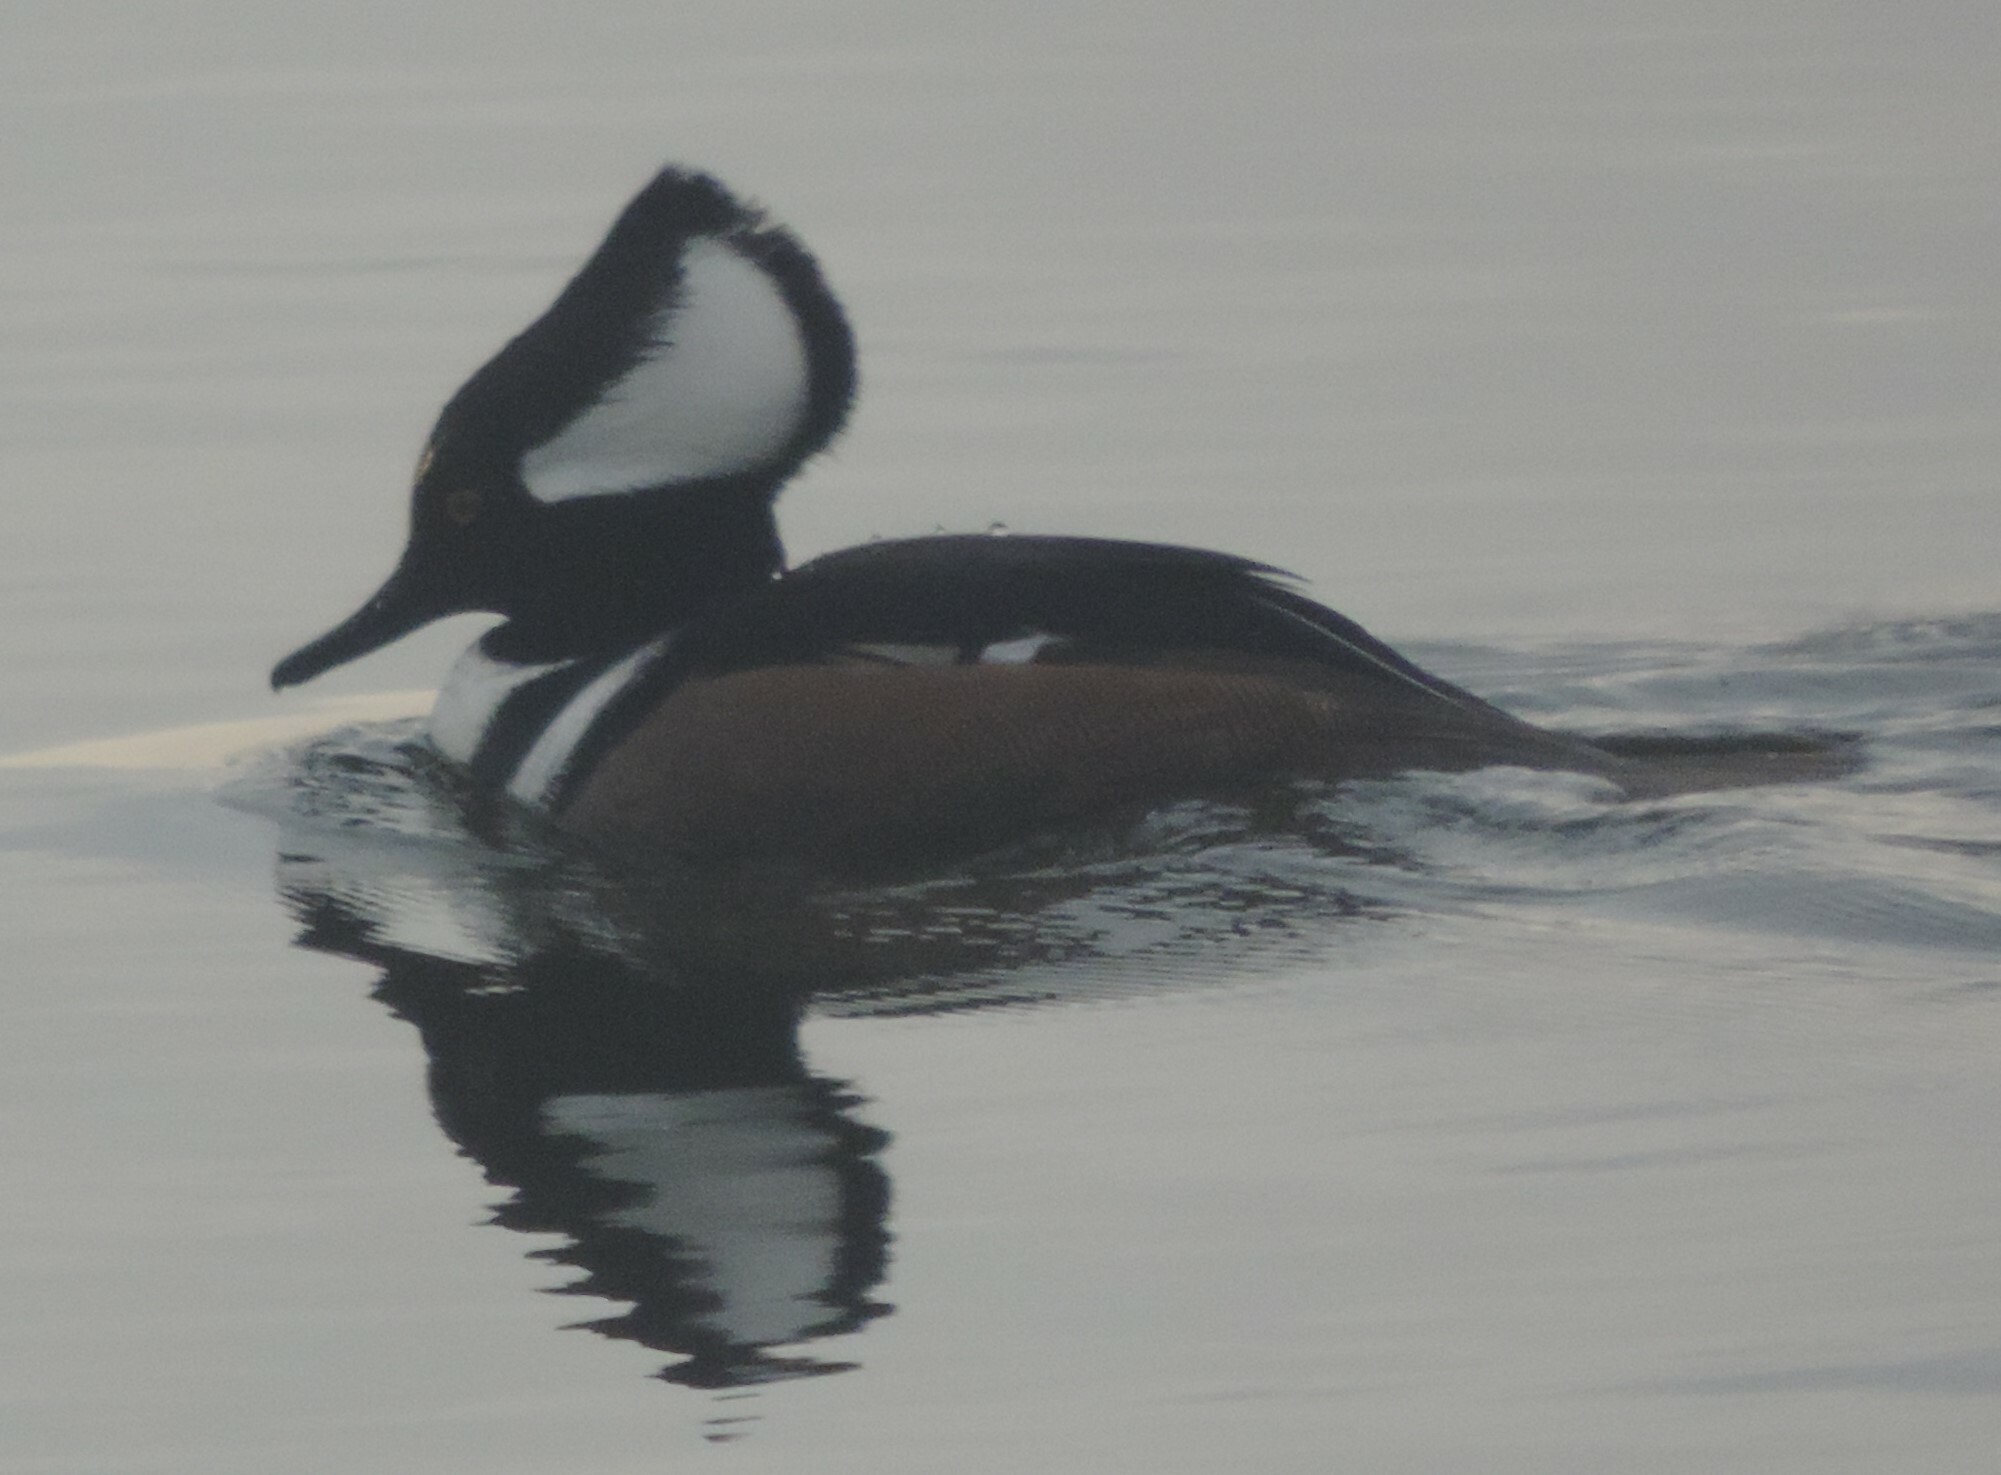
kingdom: Animalia
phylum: Chordata
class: Aves
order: Anseriformes
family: Anatidae
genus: Lophodytes
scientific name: Lophodytes cucullatus
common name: Hooded merganser
